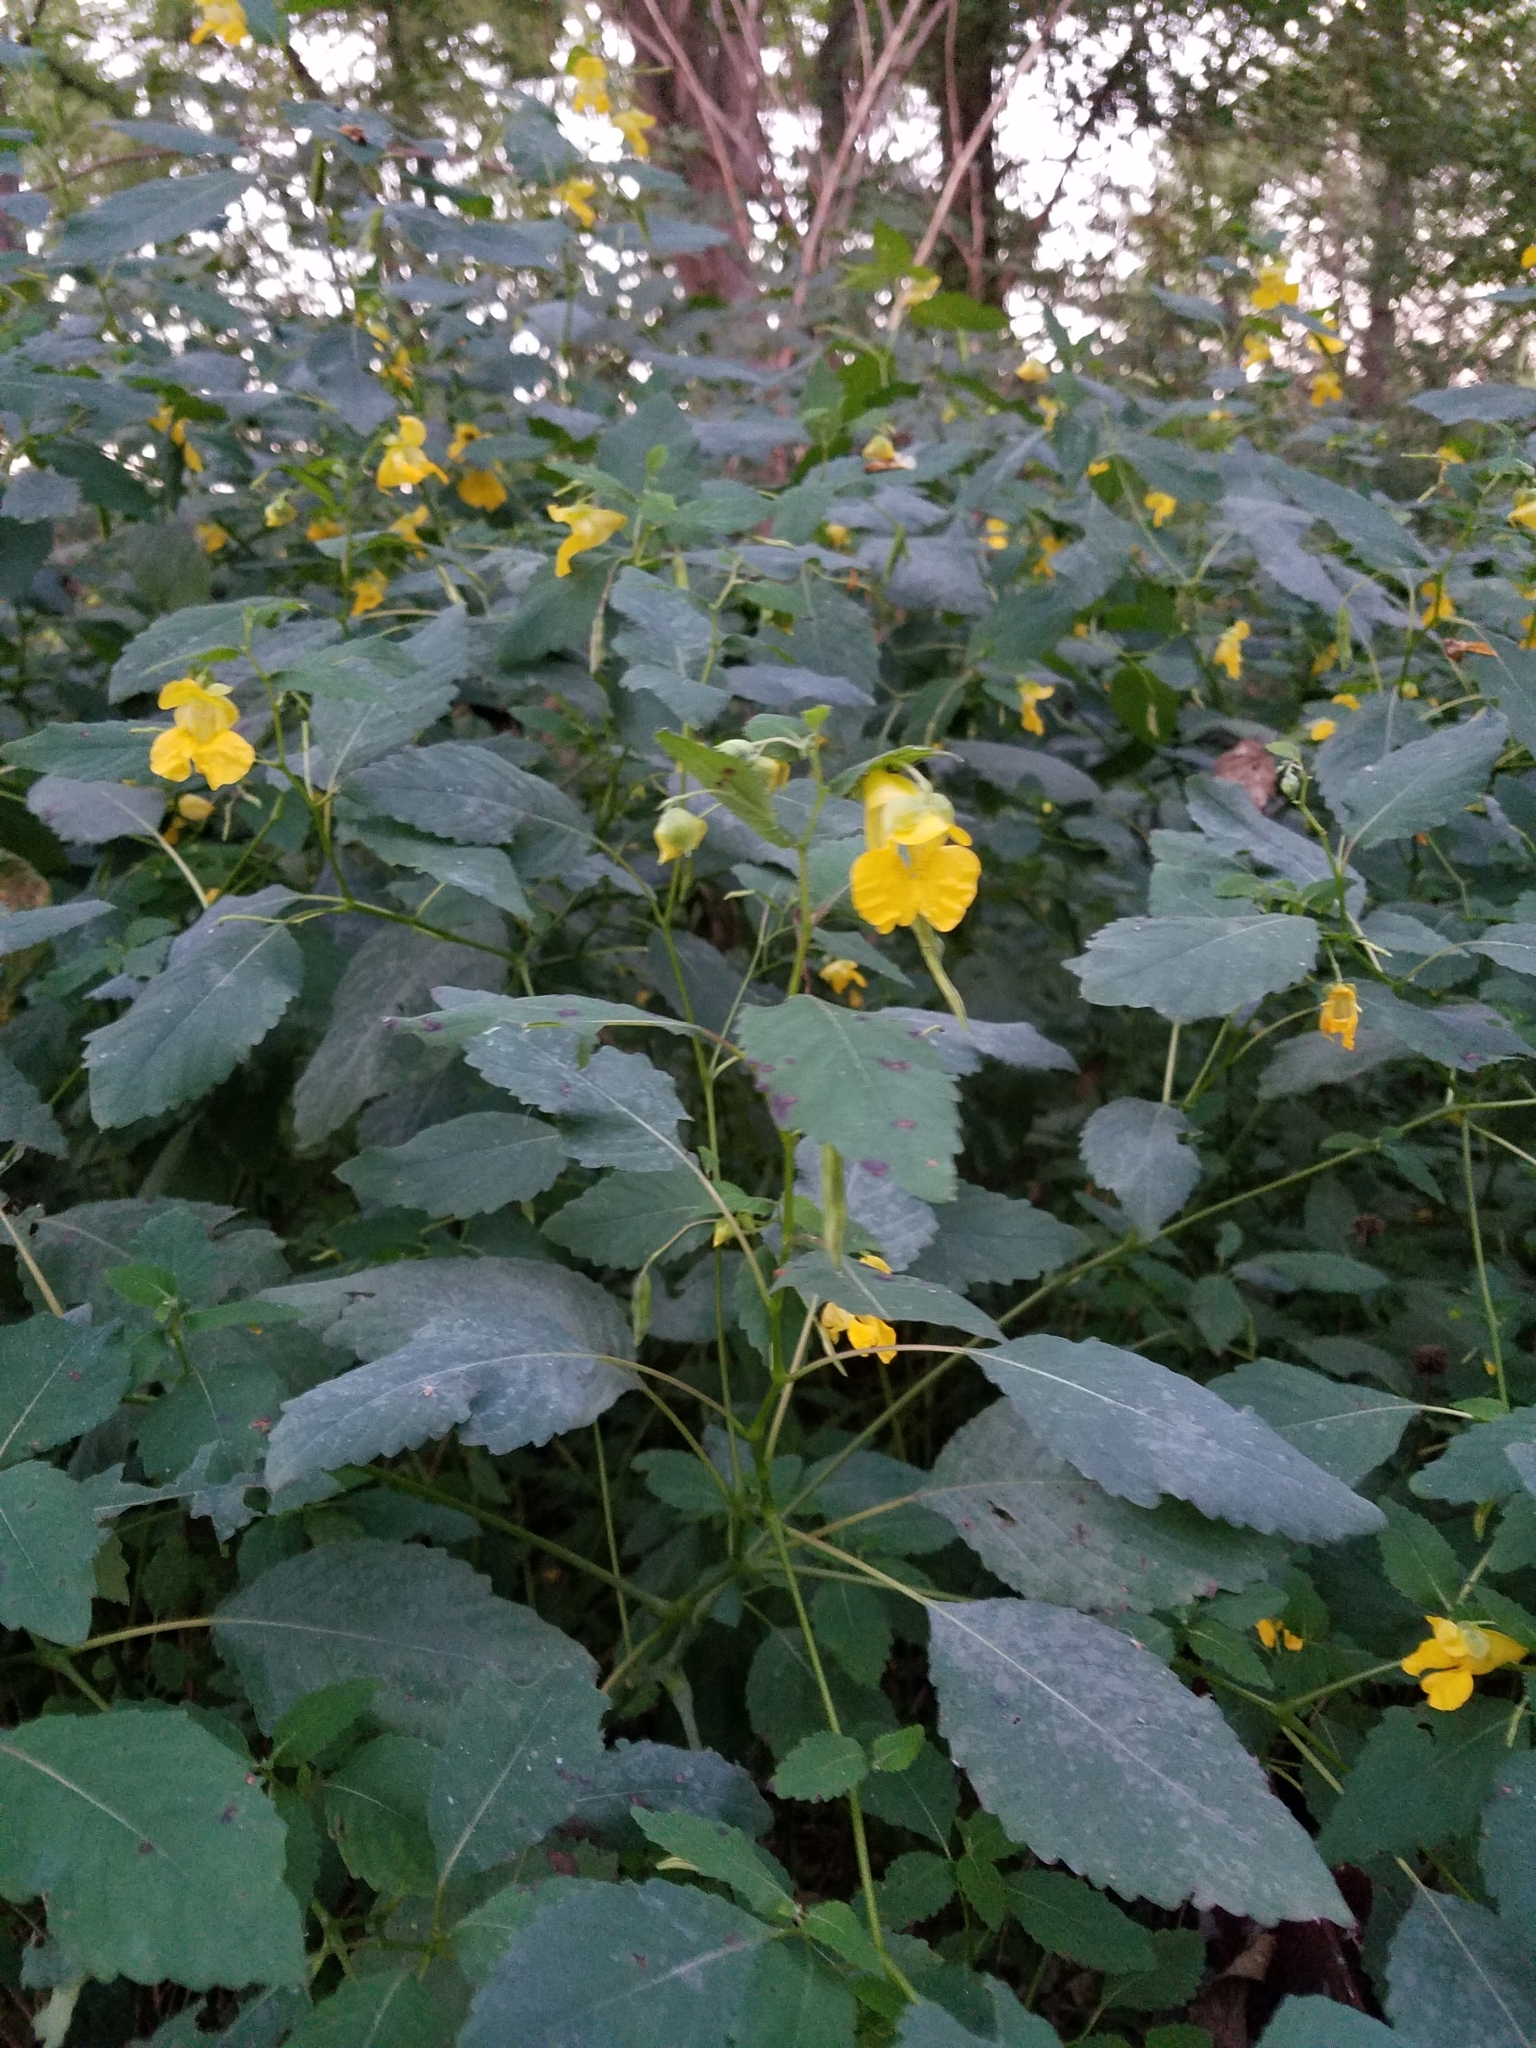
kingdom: Plantae
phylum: Tracheophyta
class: Magnoliopsida
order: Ericales
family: Balsaminaceae
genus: Impatiens
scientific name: Impatiens pallida
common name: Pale snapweed
